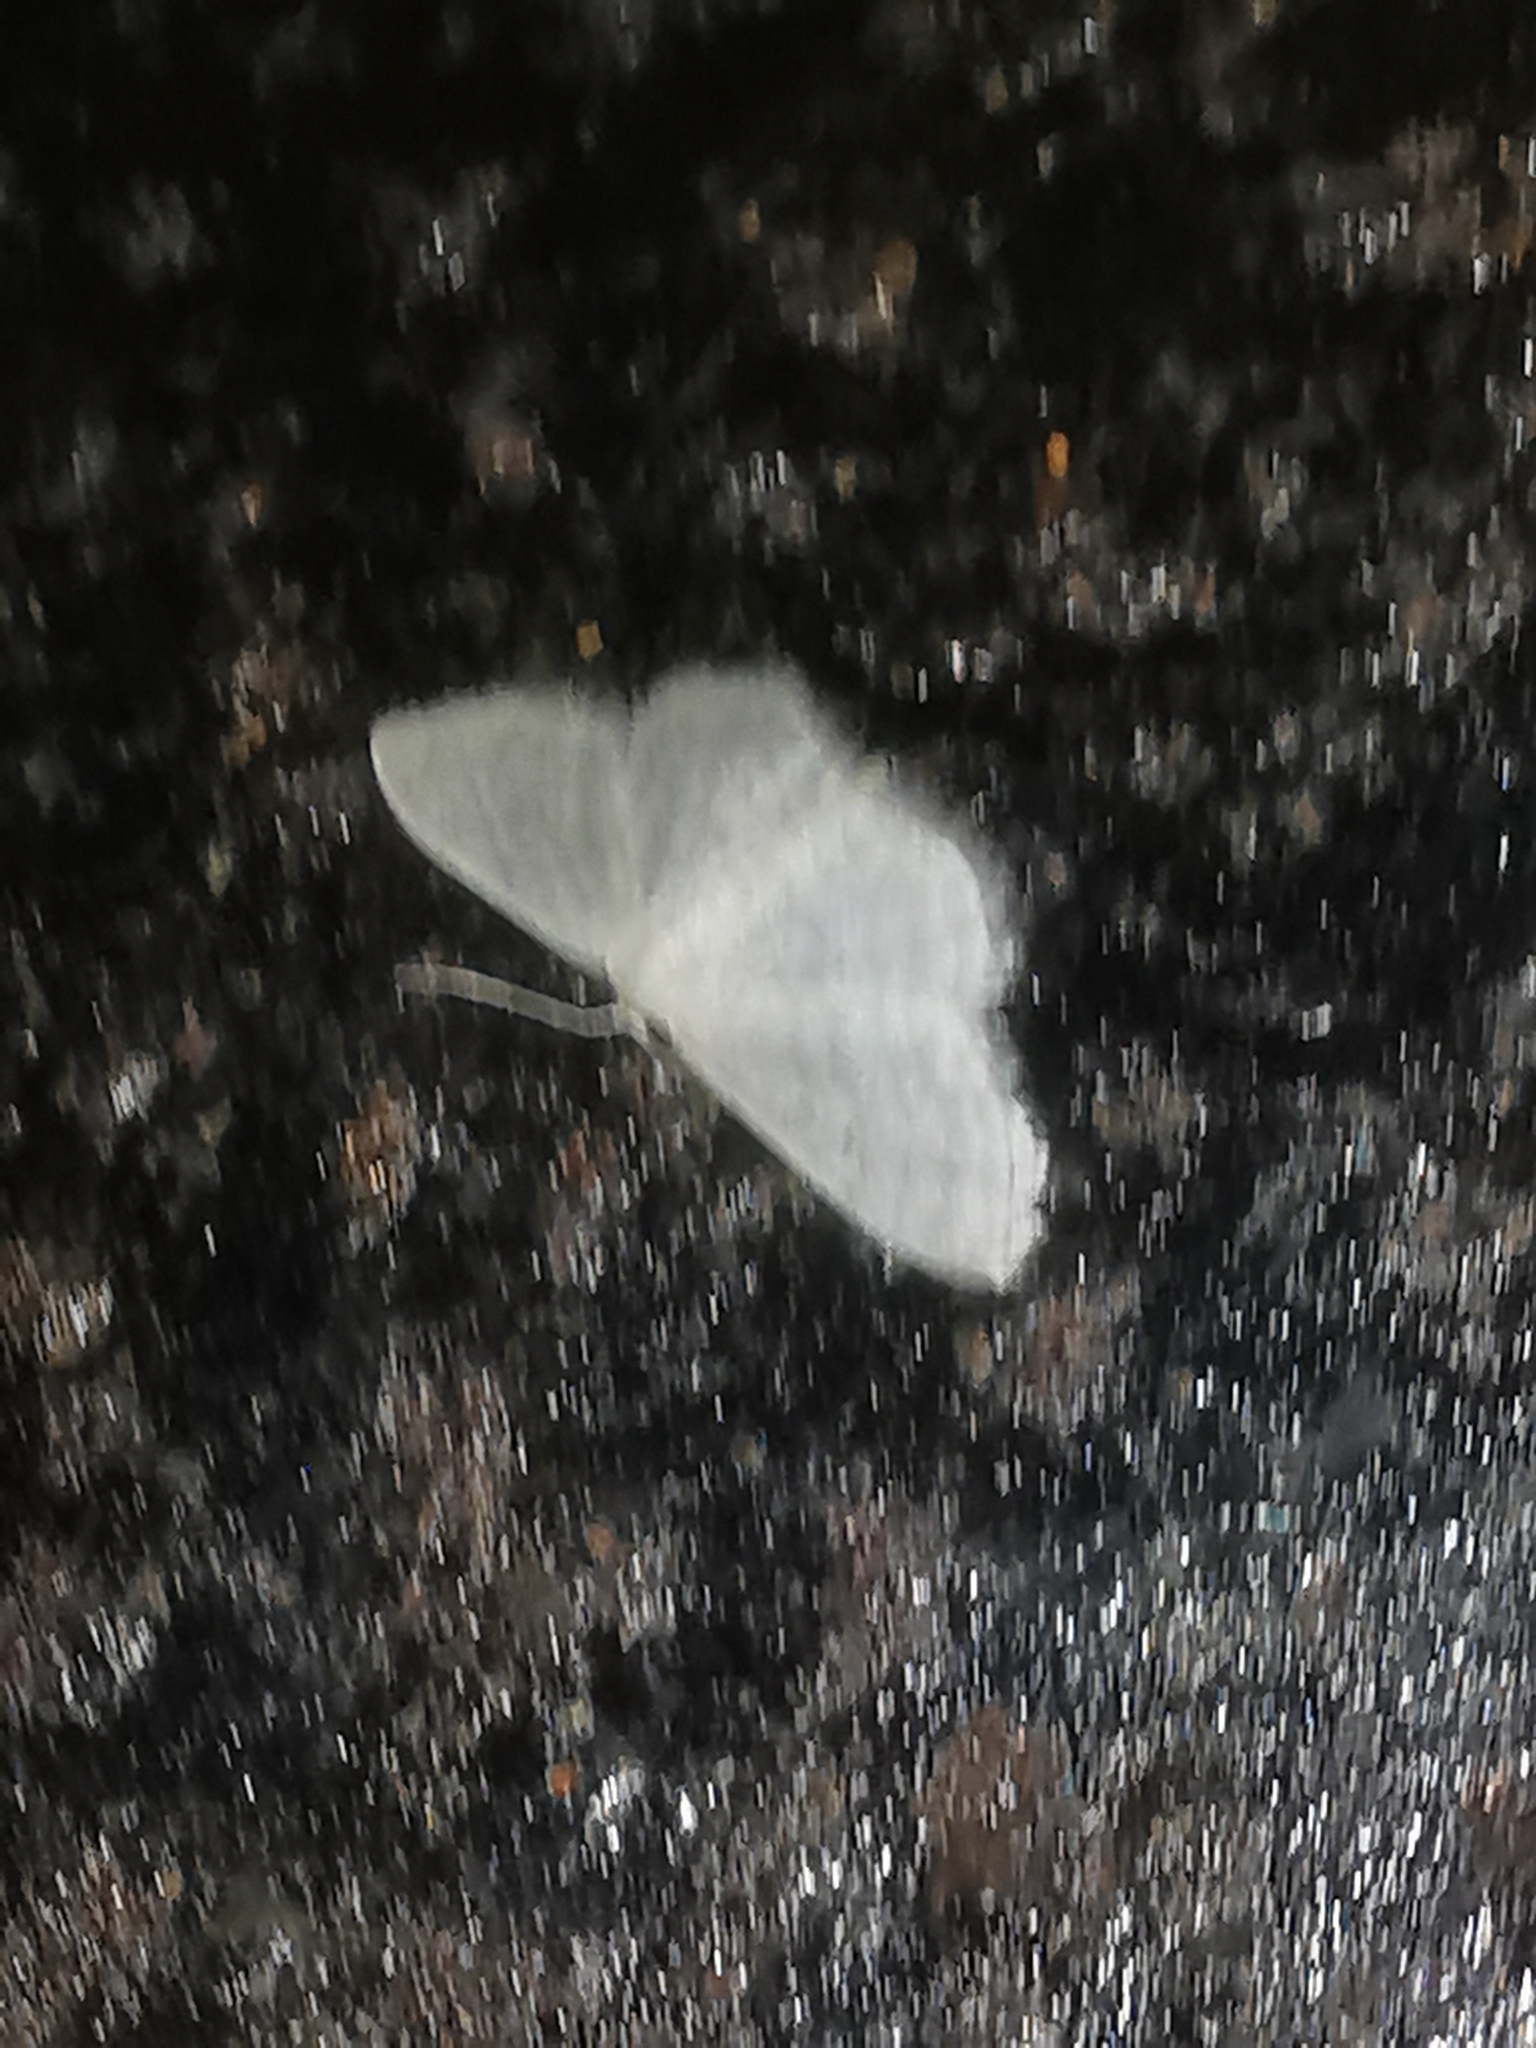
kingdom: Animalia
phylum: Arthropoda
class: Insecta
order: Lepidoptera
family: Geometridae
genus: Idaea
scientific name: Idaea subsericeata
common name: Satin wave
